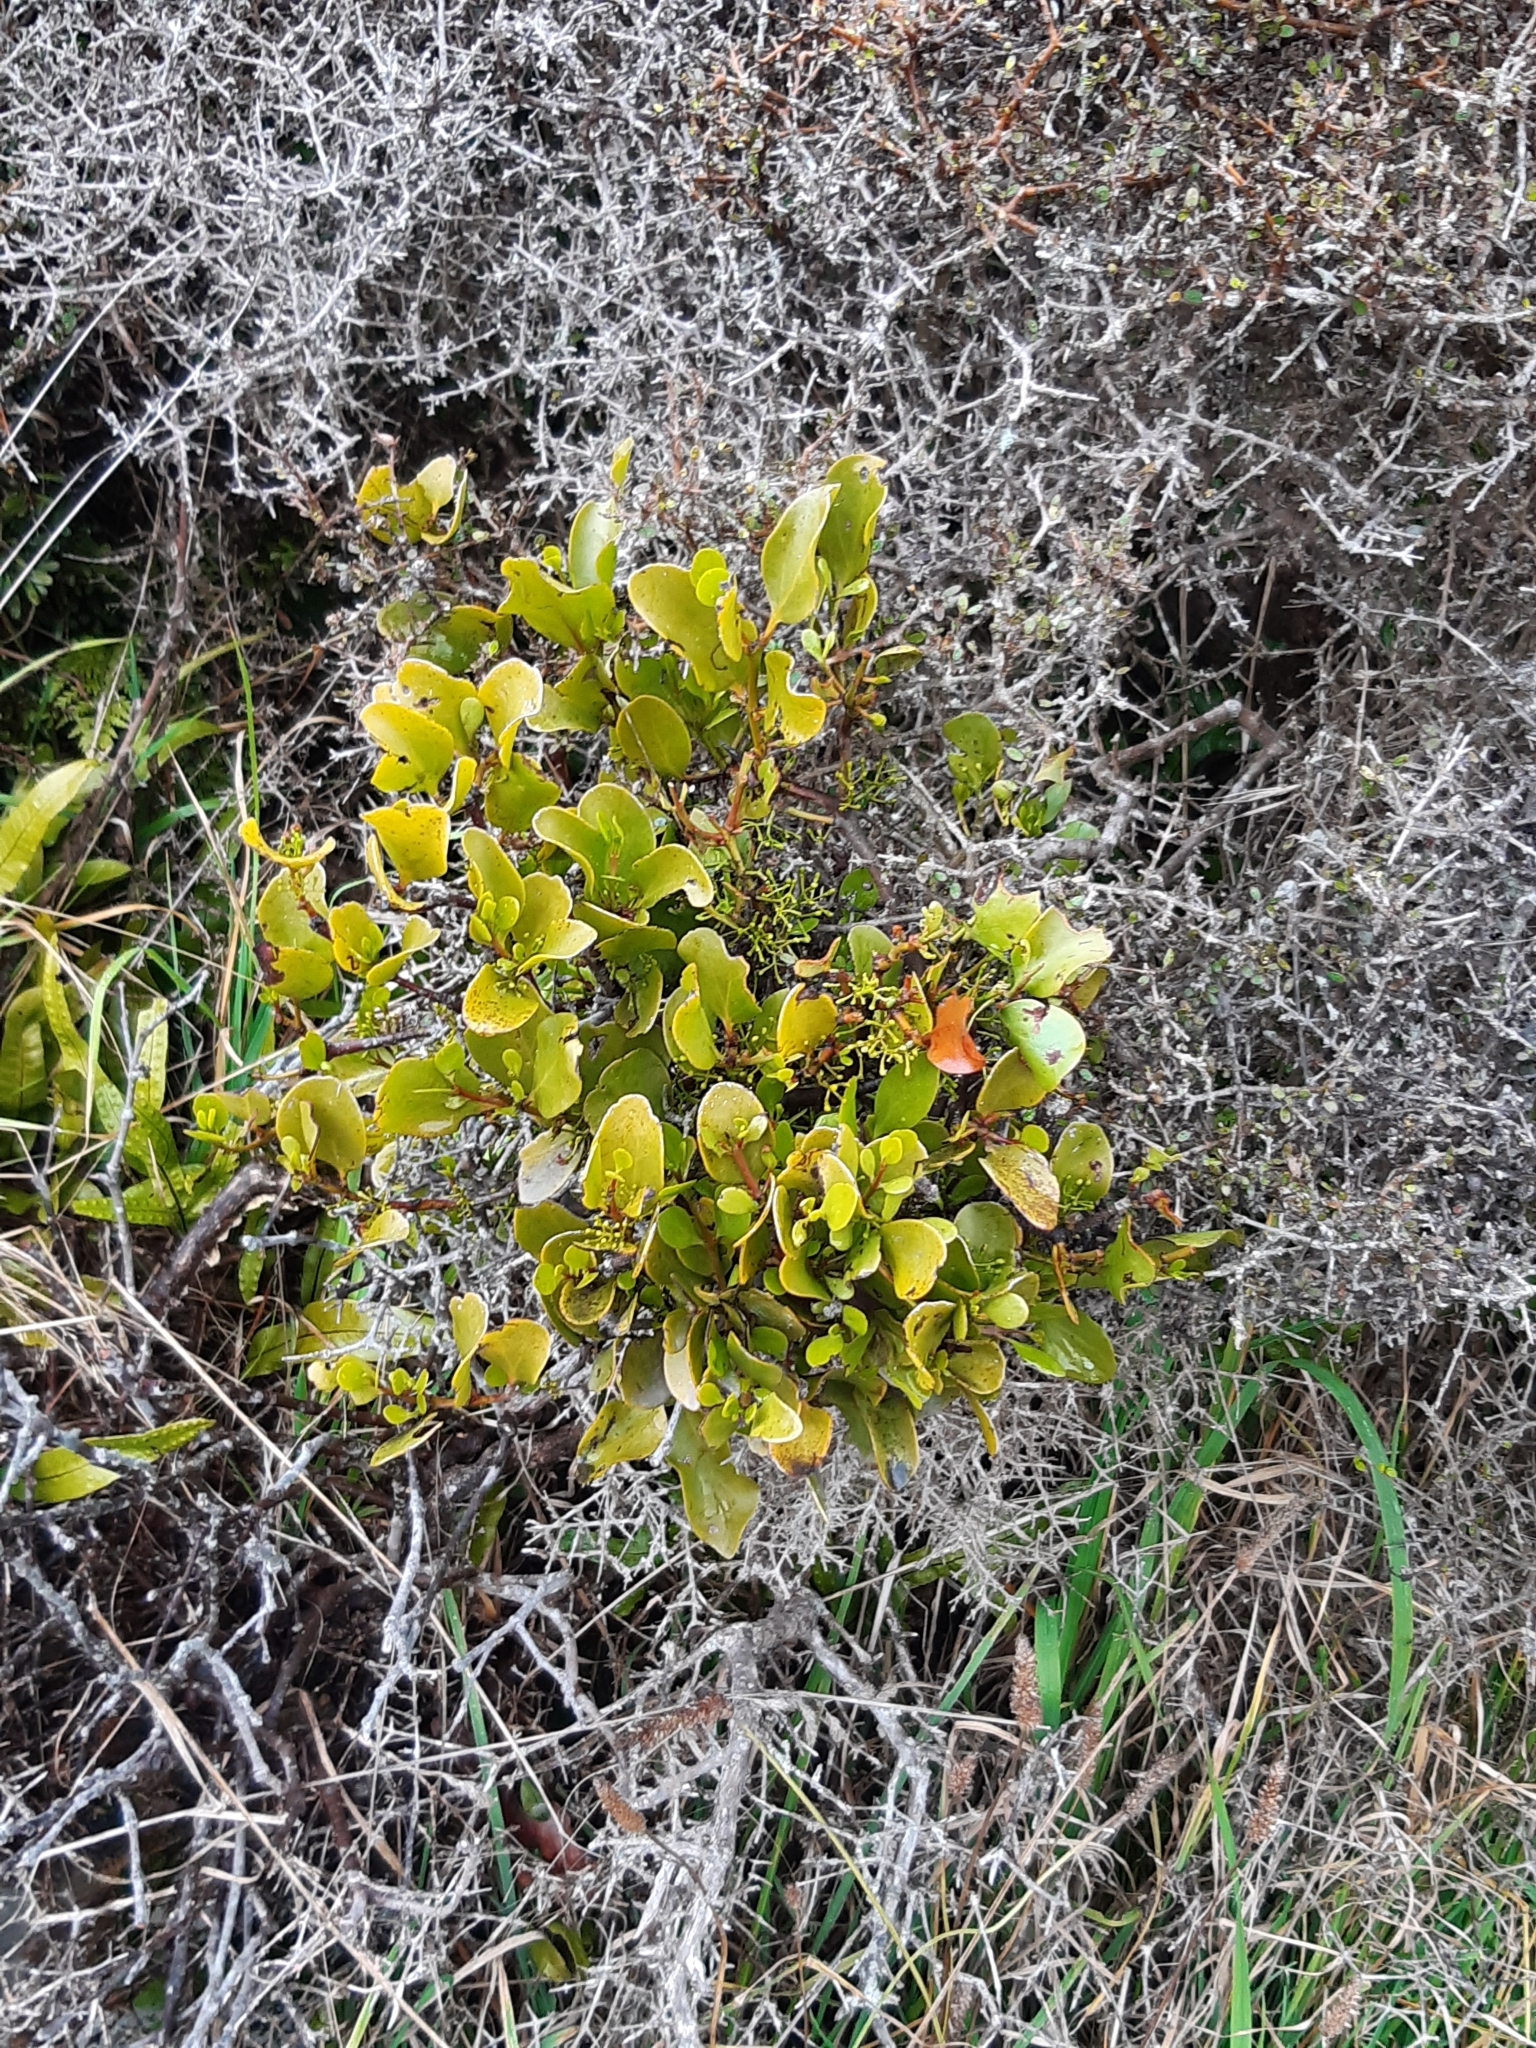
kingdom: Plantae
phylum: Tracheophyta
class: Magnoliopsida
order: Santalales
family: Loranthaceae
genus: Ileostylus
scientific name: Ileostylus micranthus
